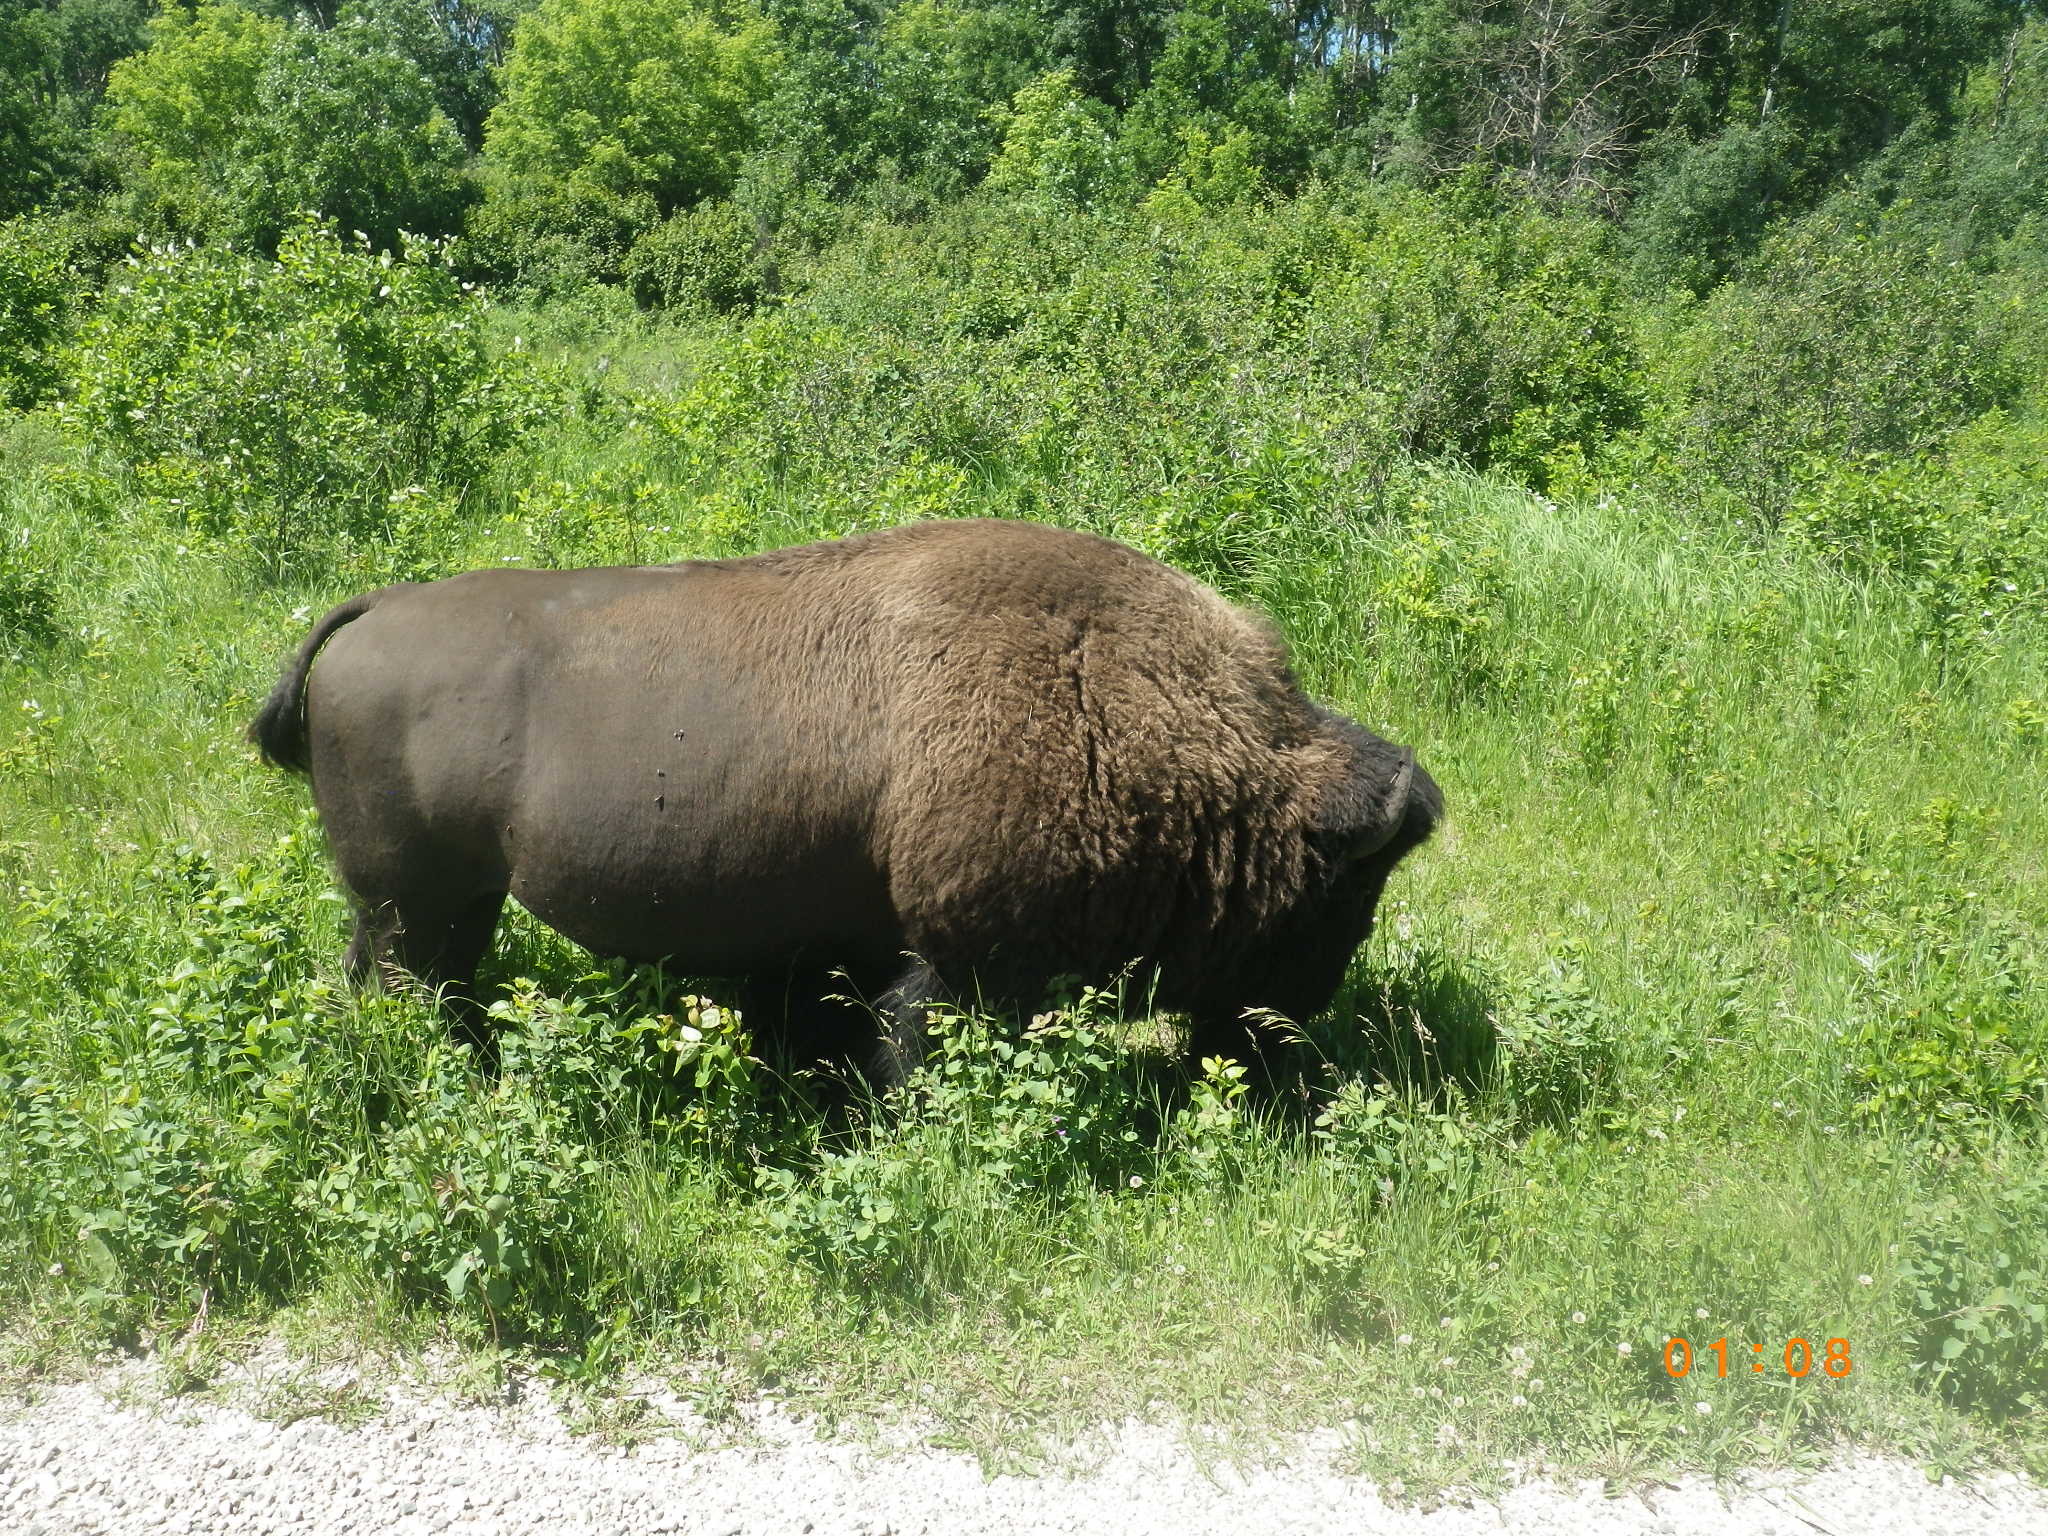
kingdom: Animalia
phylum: Chordata
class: Mammalia
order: Artiodactyla
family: Bovidae
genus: Bison
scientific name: Bison bison
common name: American bison
